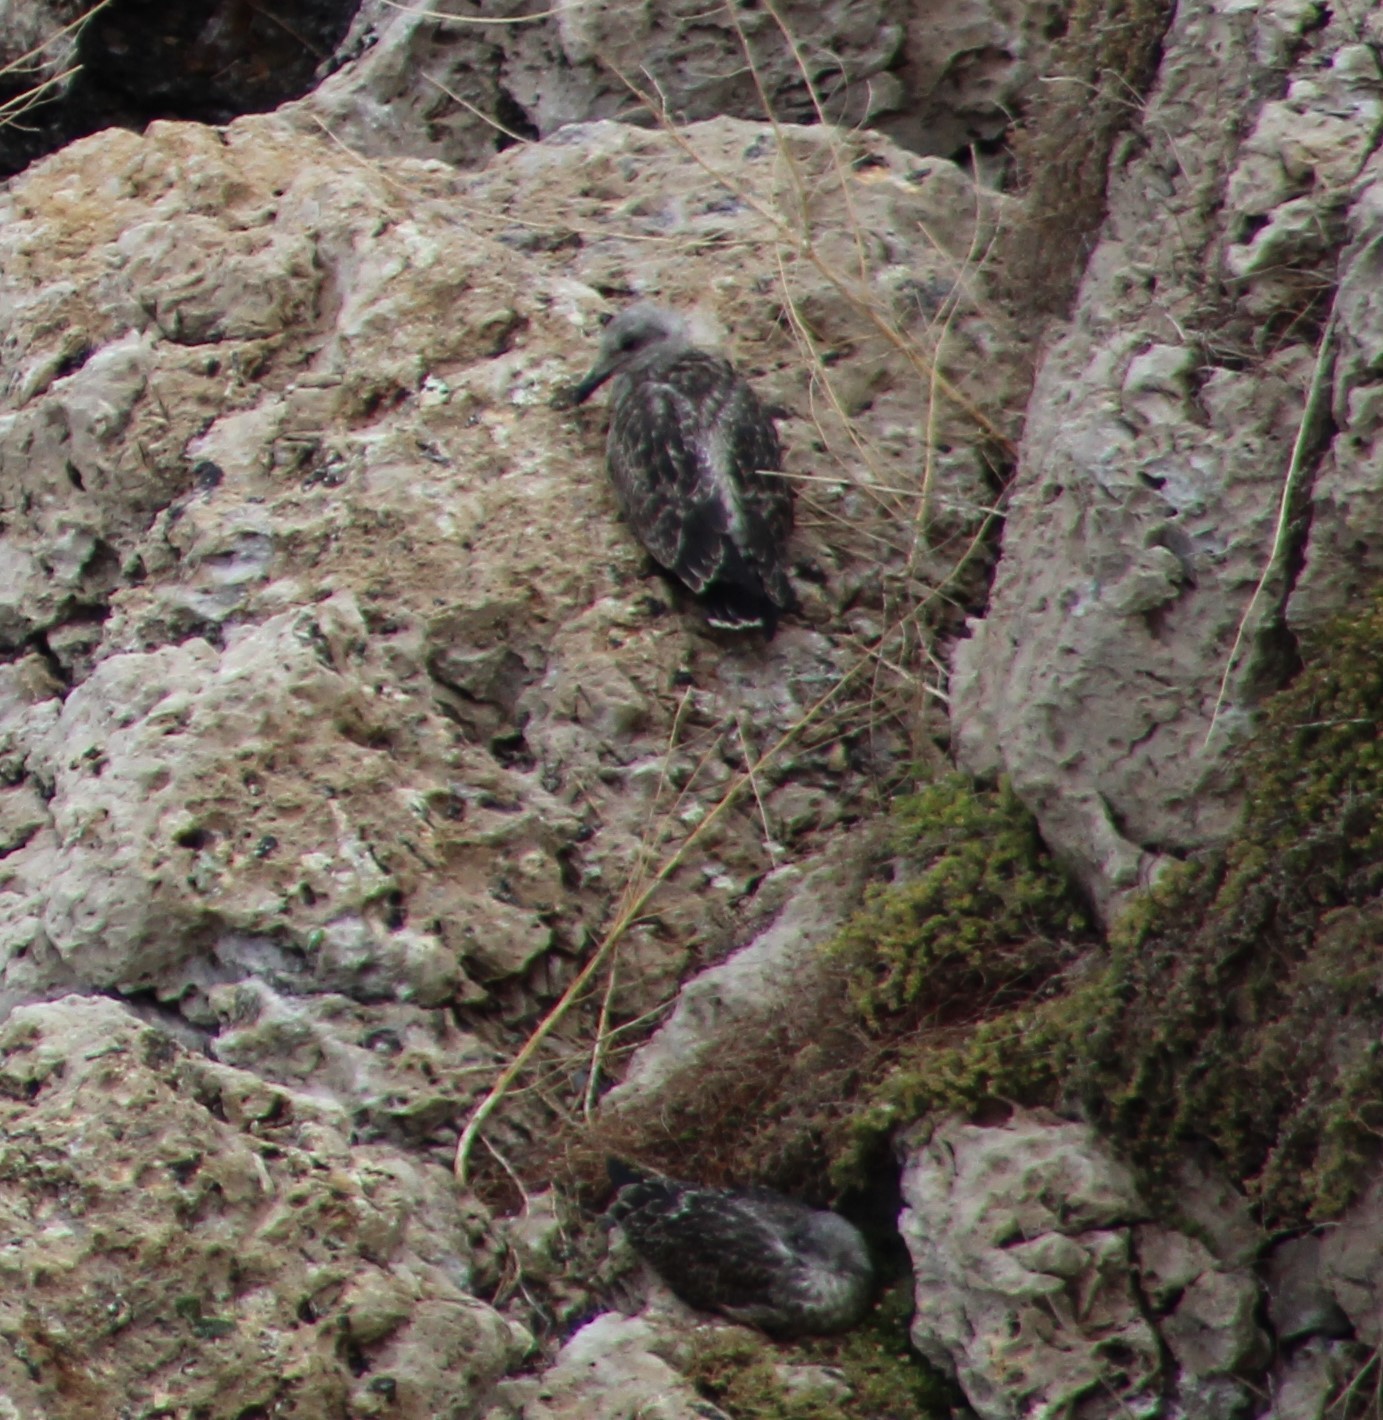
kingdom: Animalia
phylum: Chordata
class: Aves
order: Charadriiformes
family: Laridae
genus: Larus
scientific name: Larus michahellis
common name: Yellow-legged gull
